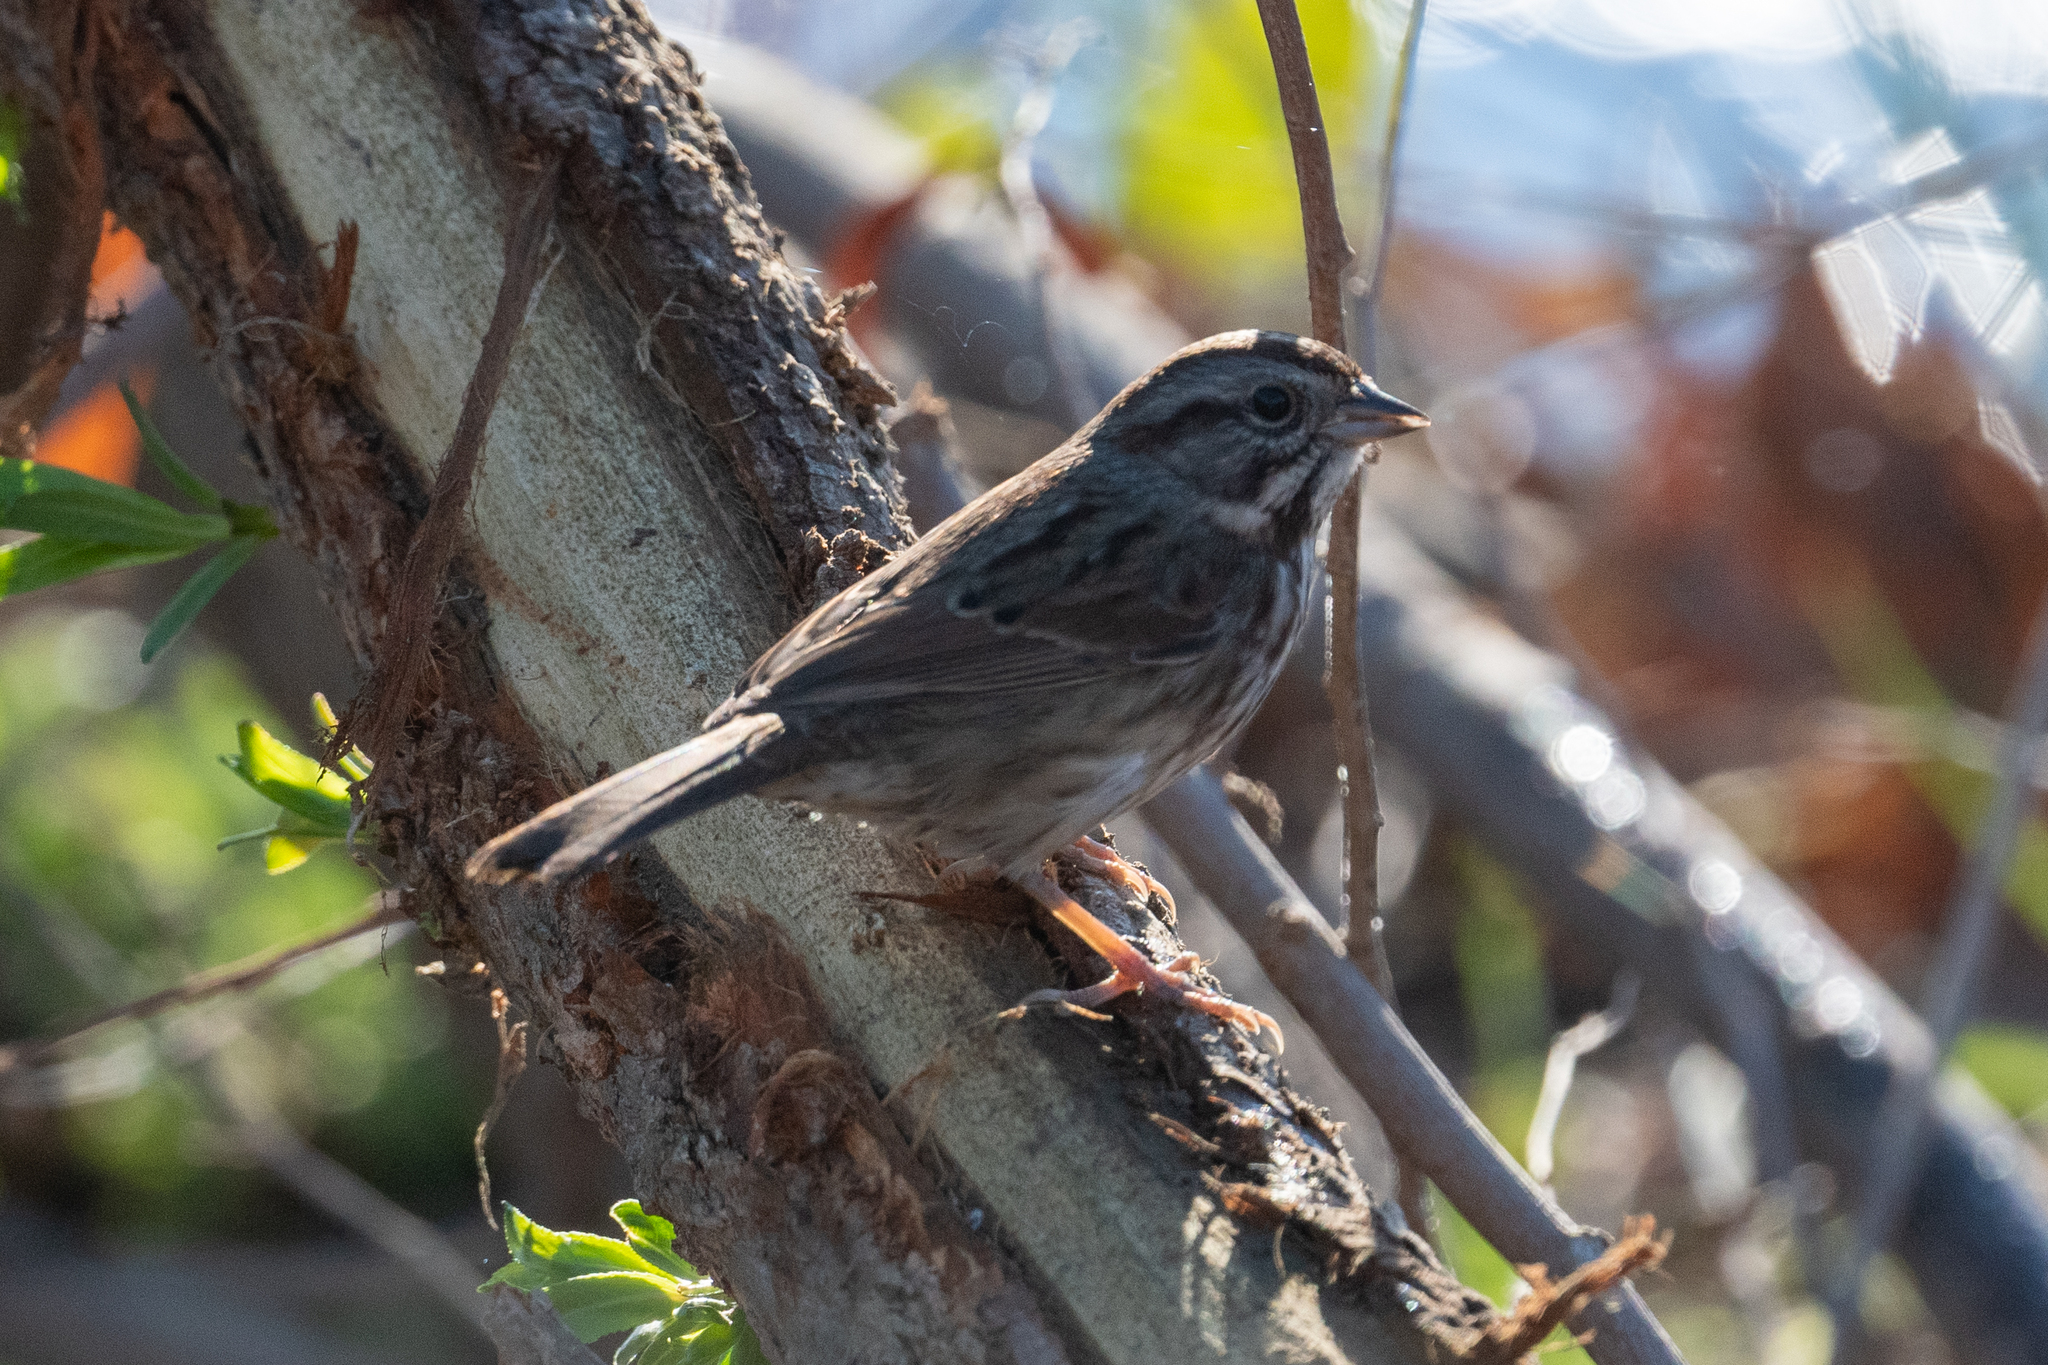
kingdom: Animalia
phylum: Chordata
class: Aves
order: Passeriformes
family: Passerellidae
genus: Melospiza
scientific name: Melospiza melodia
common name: Song sparrow
